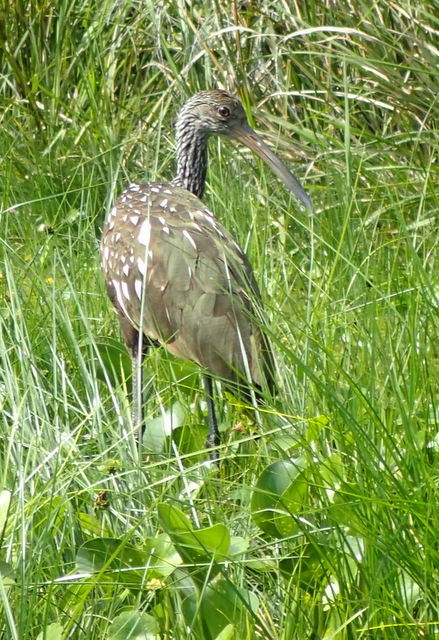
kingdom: Animalia
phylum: Chordata
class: Aves
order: Gruiformes
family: Aramidae
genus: Aramus
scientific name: Aramus guarauna
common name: Limpkin
